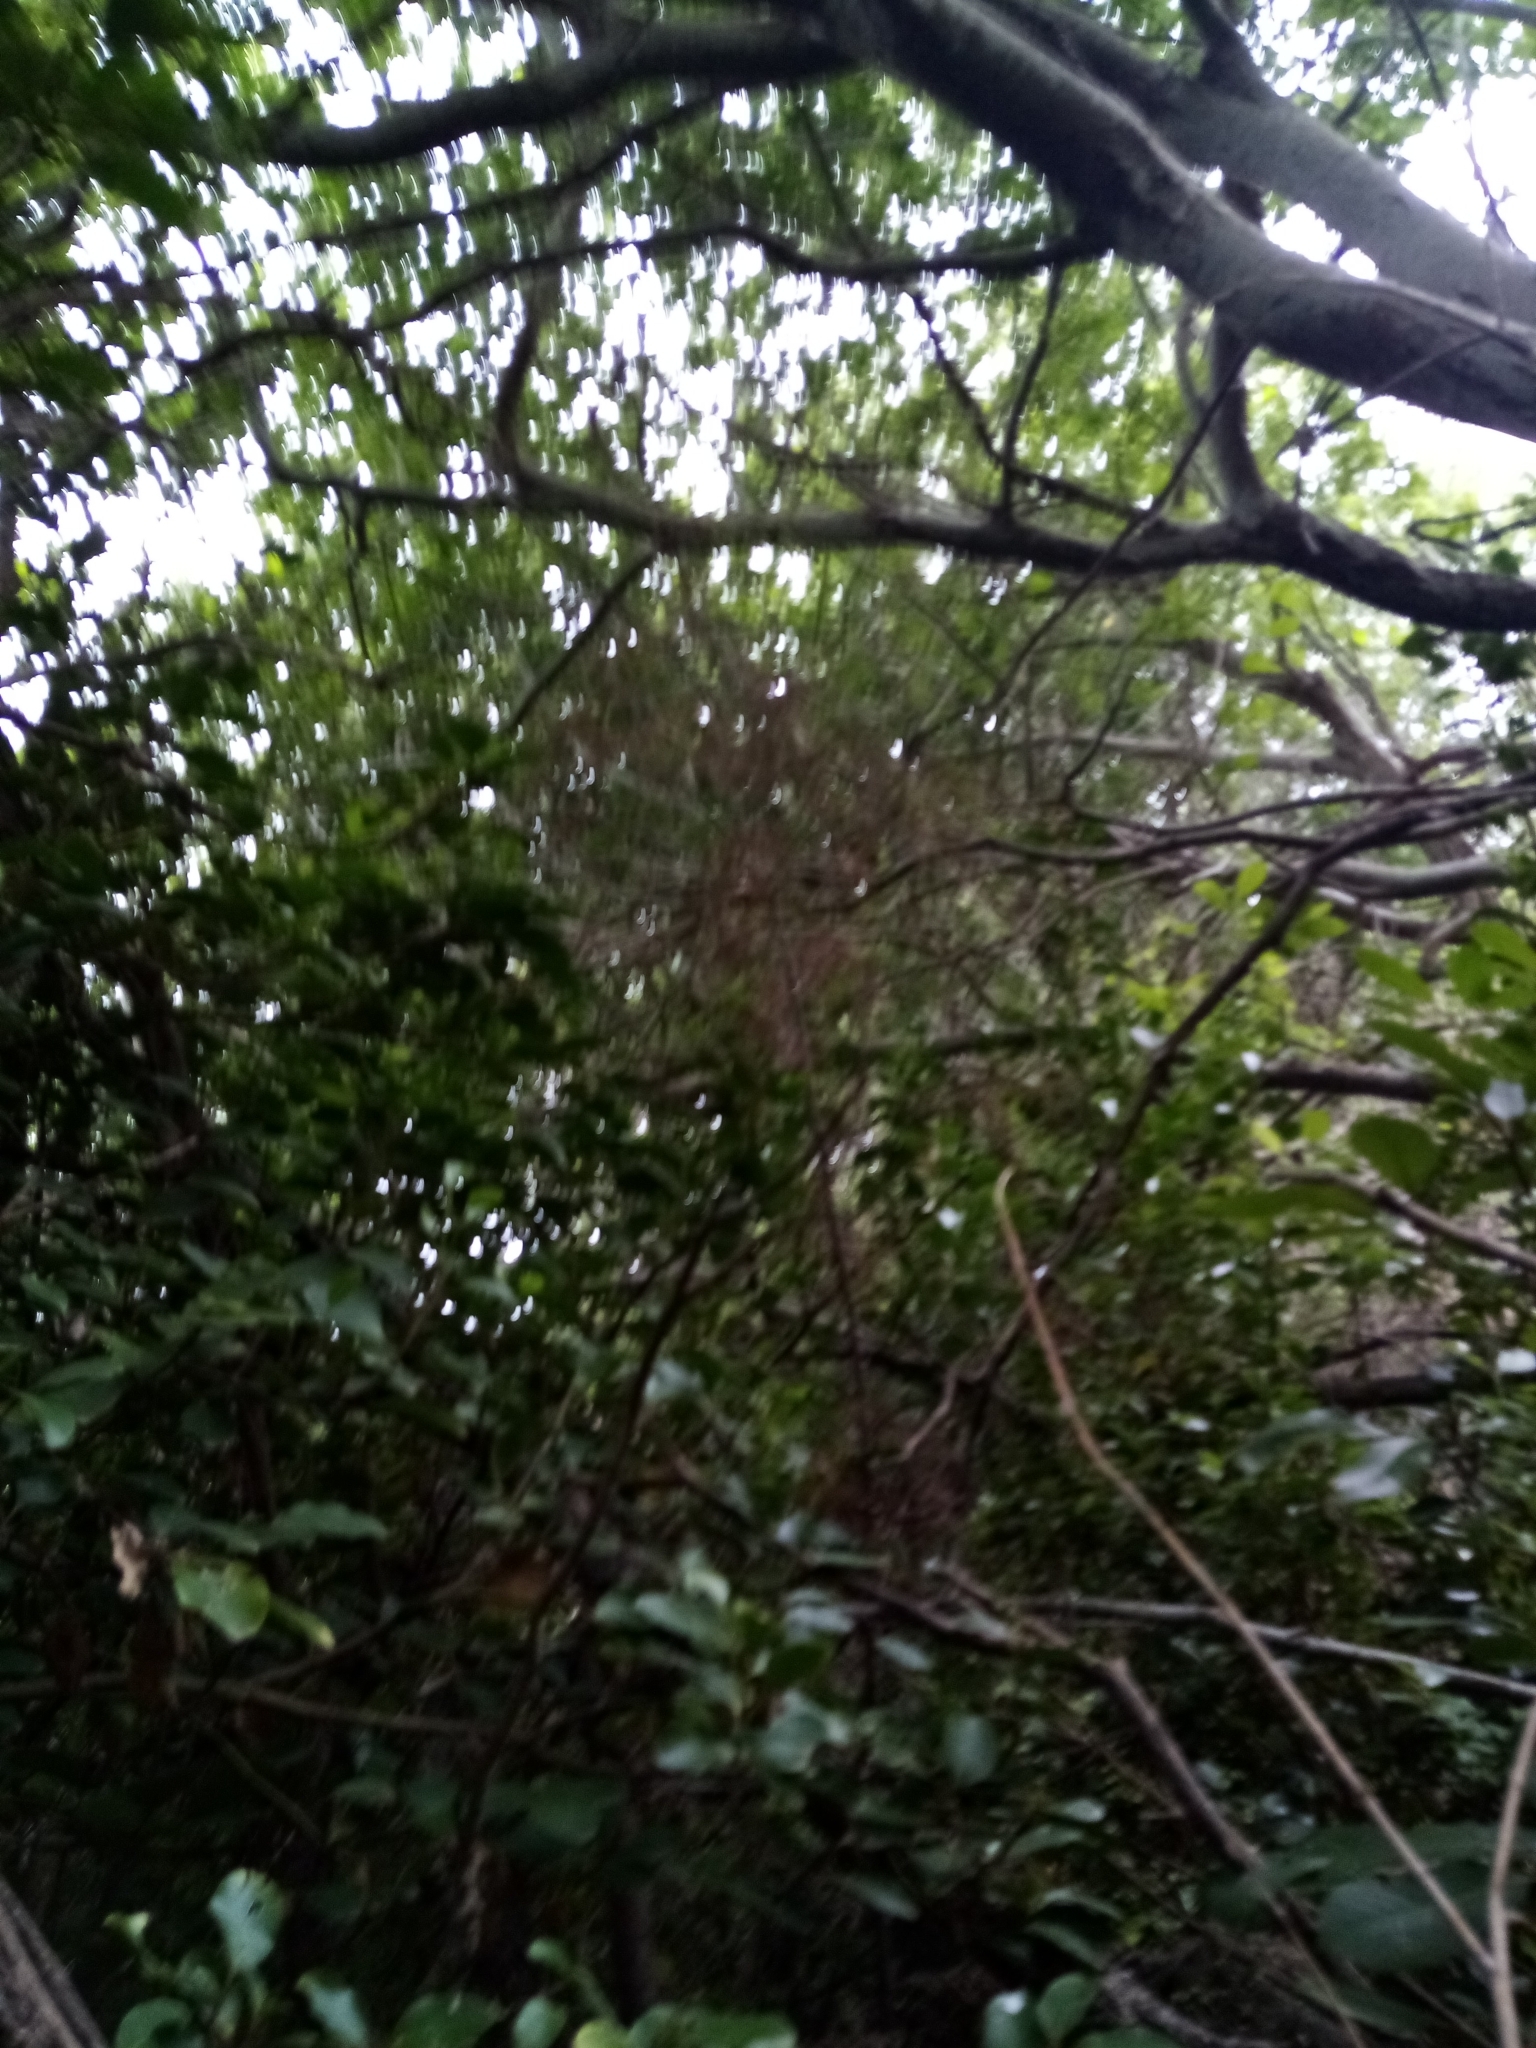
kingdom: Plantae
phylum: Tracheophyta
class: Pinopsida
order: Pinales
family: Podocarpaceae
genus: Dacrycarpus
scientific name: Dacrycarpus dacrydioides
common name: White pine
